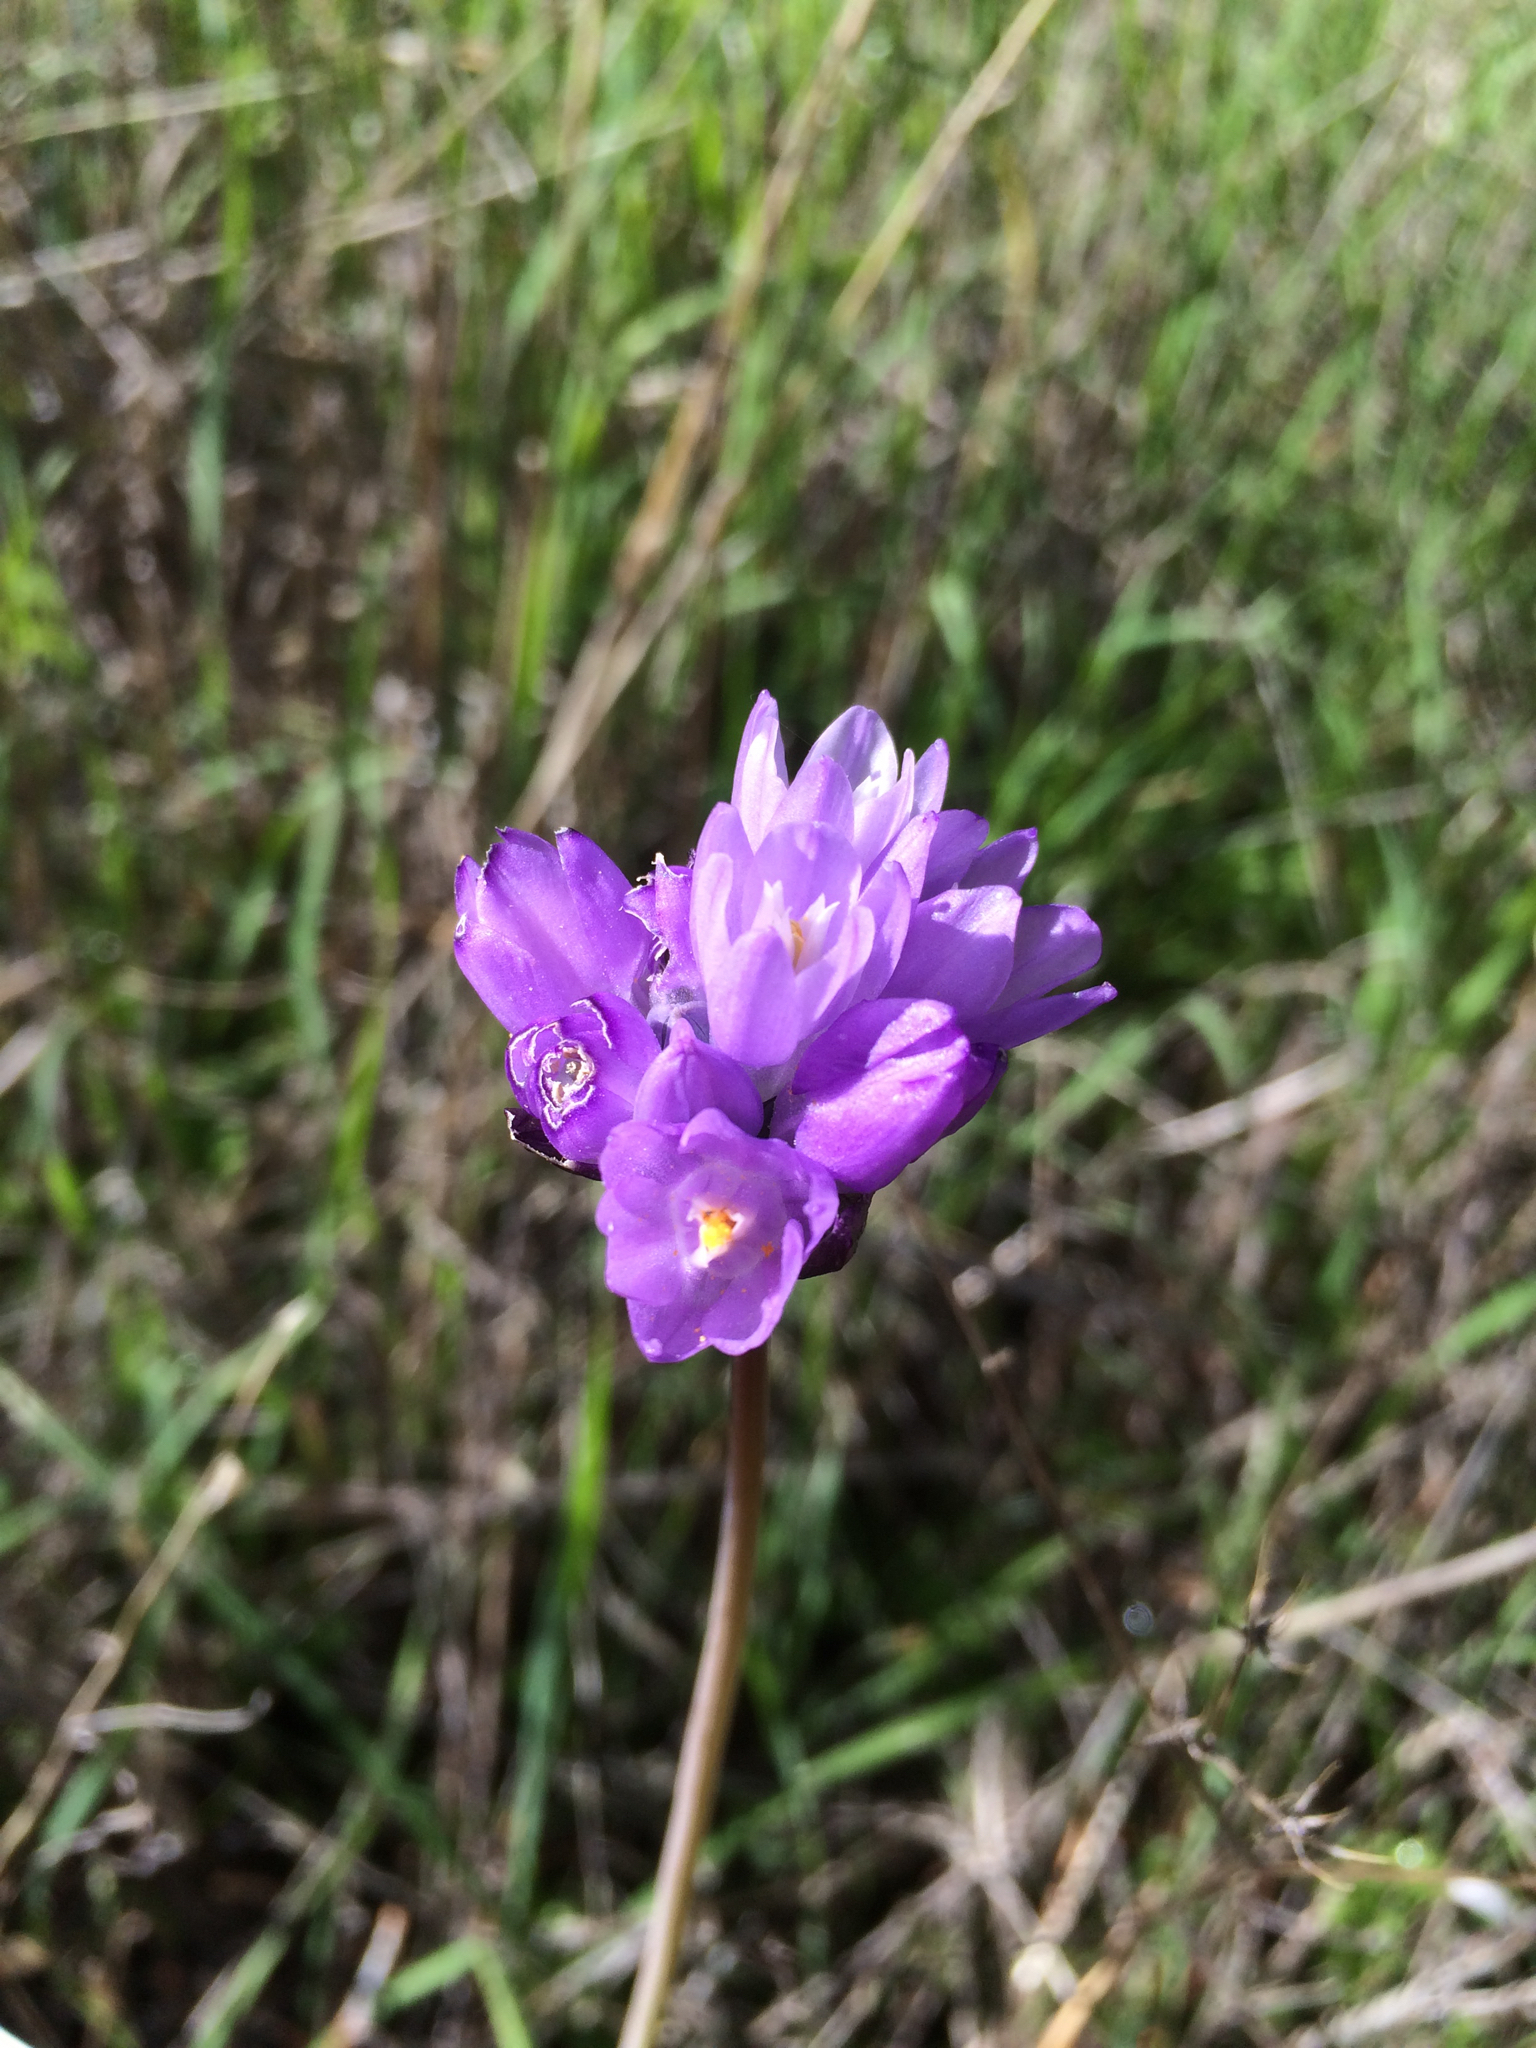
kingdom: Plantae
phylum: Tracheophyta
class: Liliopsida
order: Asparagales
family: Asparagaceae
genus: Dipterostemon
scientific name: Dipterostemon capitatus
